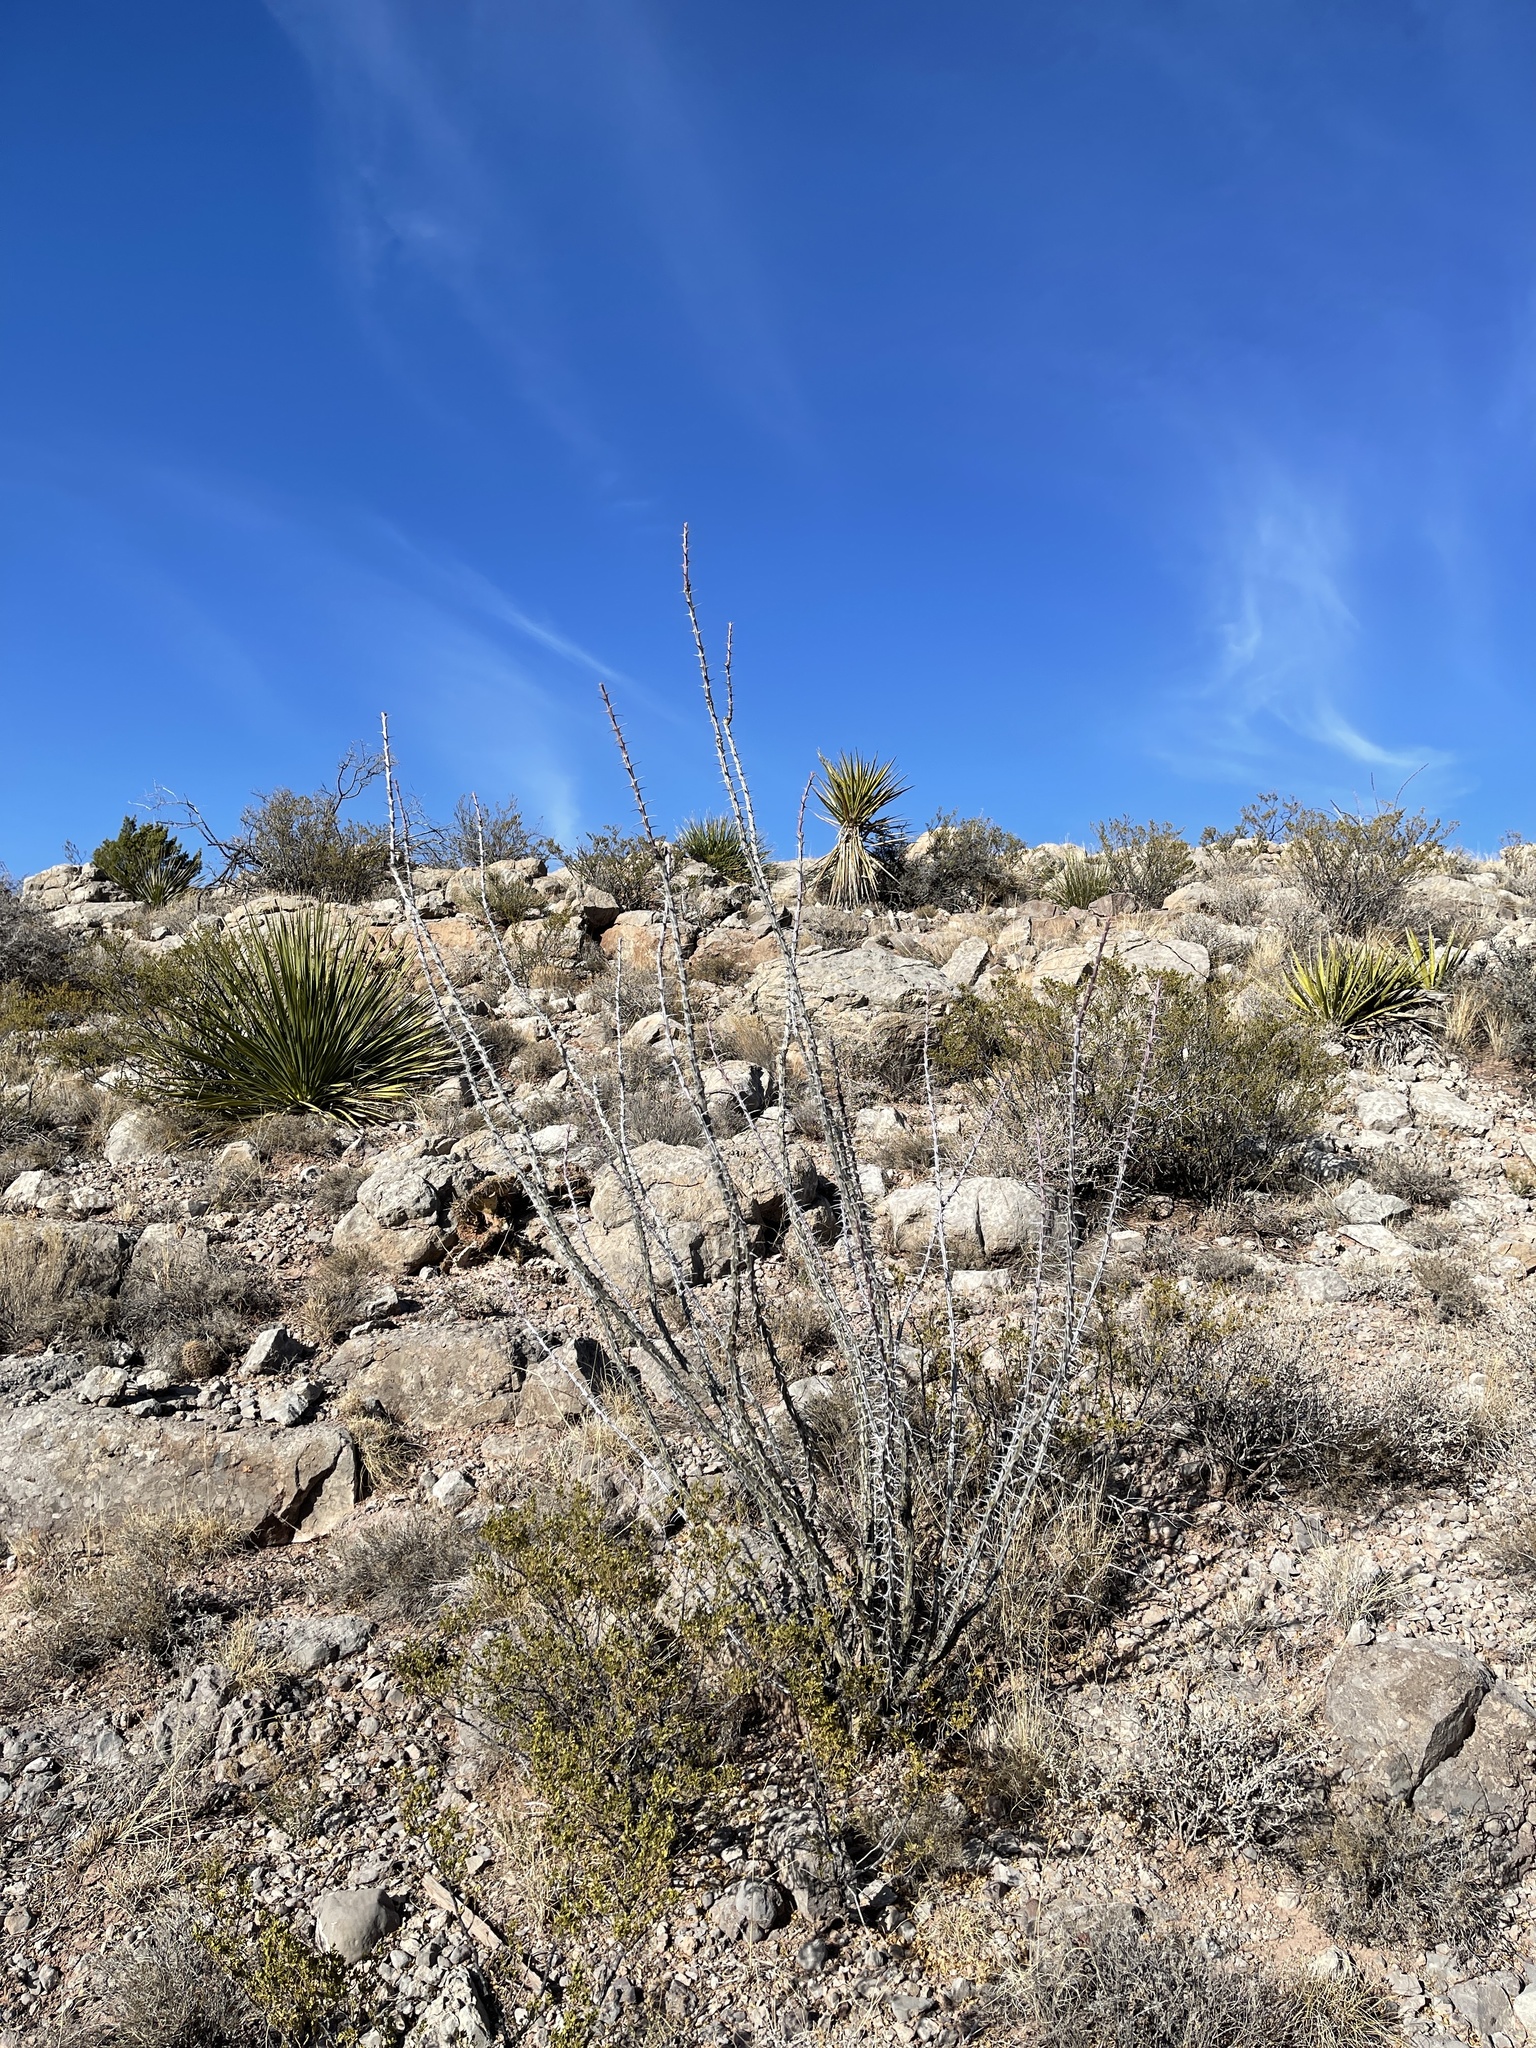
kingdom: Plantae
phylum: Tracheophyta
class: Magnoliopsida
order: Ericales
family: Fouquieriaceae
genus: Fouquieria
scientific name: Fouquieria splendens
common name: Vine-cactus
